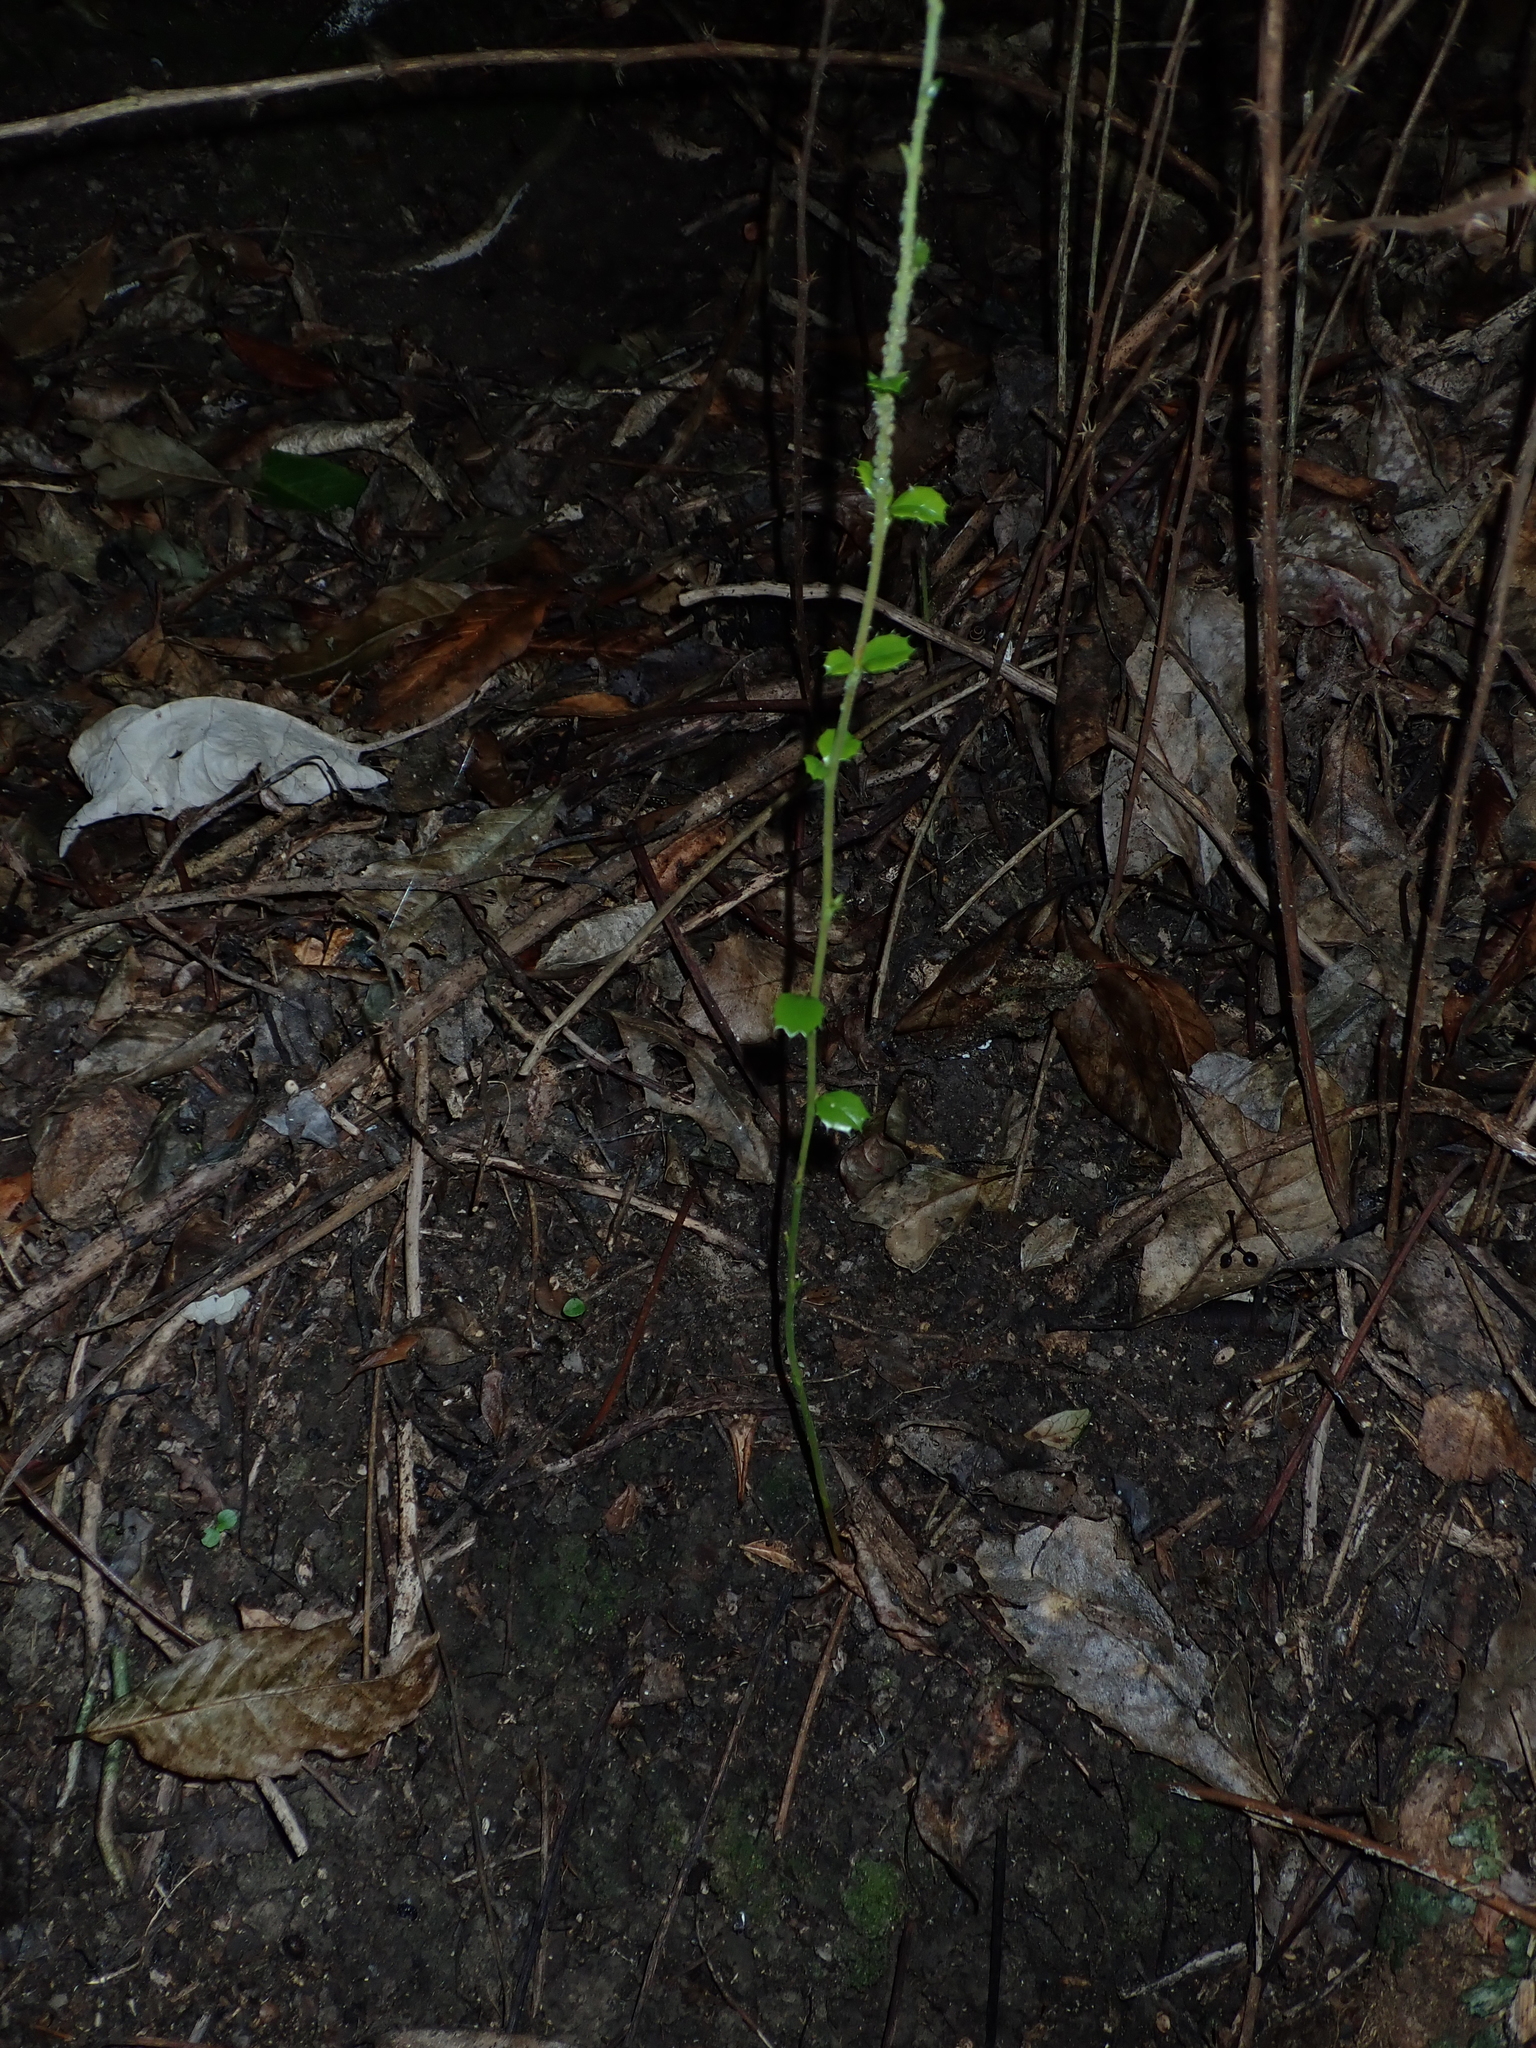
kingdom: Plantae
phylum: Tracheophyta
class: Magnoliopsida
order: Ranunculales
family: Berberidaceae
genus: Berberis
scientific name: Berberis darwinii
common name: Darwin's barberry
